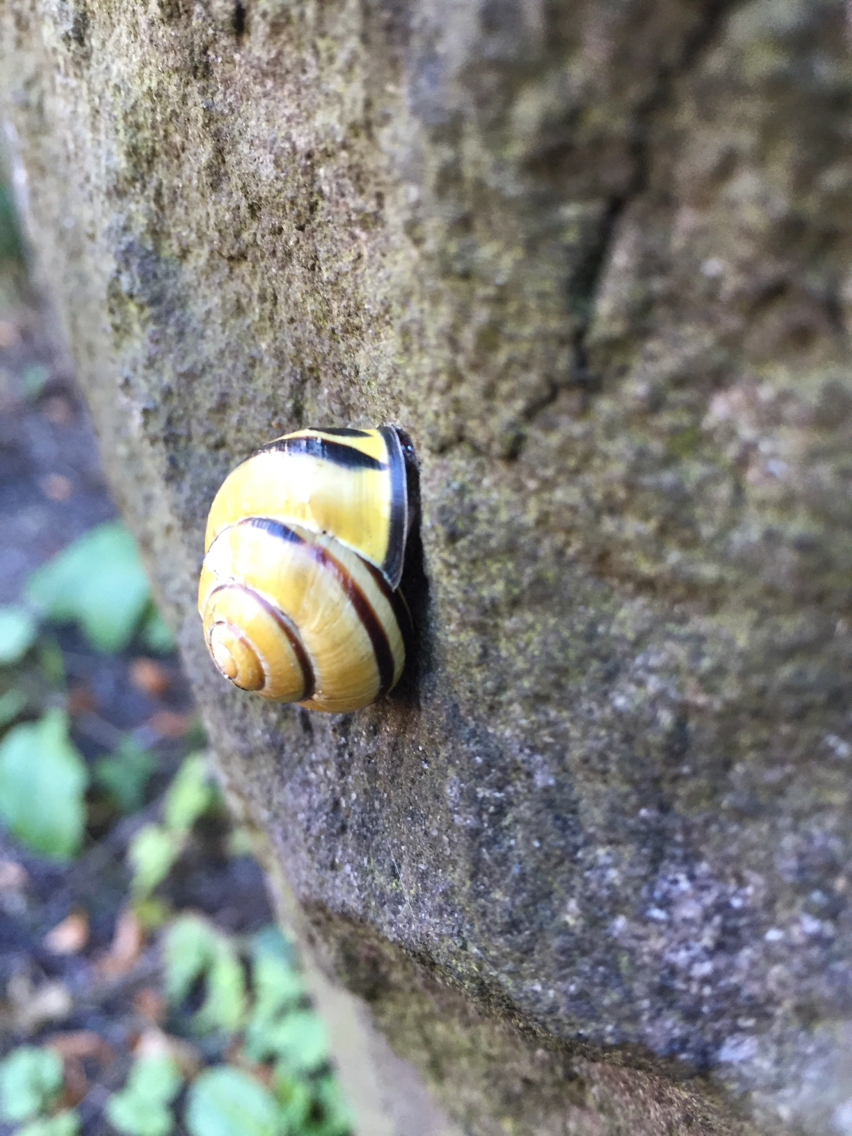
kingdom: Animalia
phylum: Mollusca
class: Gastropoda
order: Stylommatophora
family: Helicidae
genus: Cepaea
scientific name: Cepaea nemoralis
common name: Grovesnail
